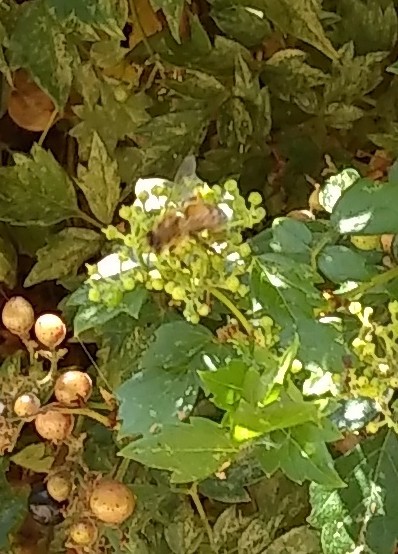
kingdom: Animalia
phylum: Arthropoda
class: Insecta
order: Hymenoptera
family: Apidae
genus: Apis
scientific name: Apis mellifera
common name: Honey bee
